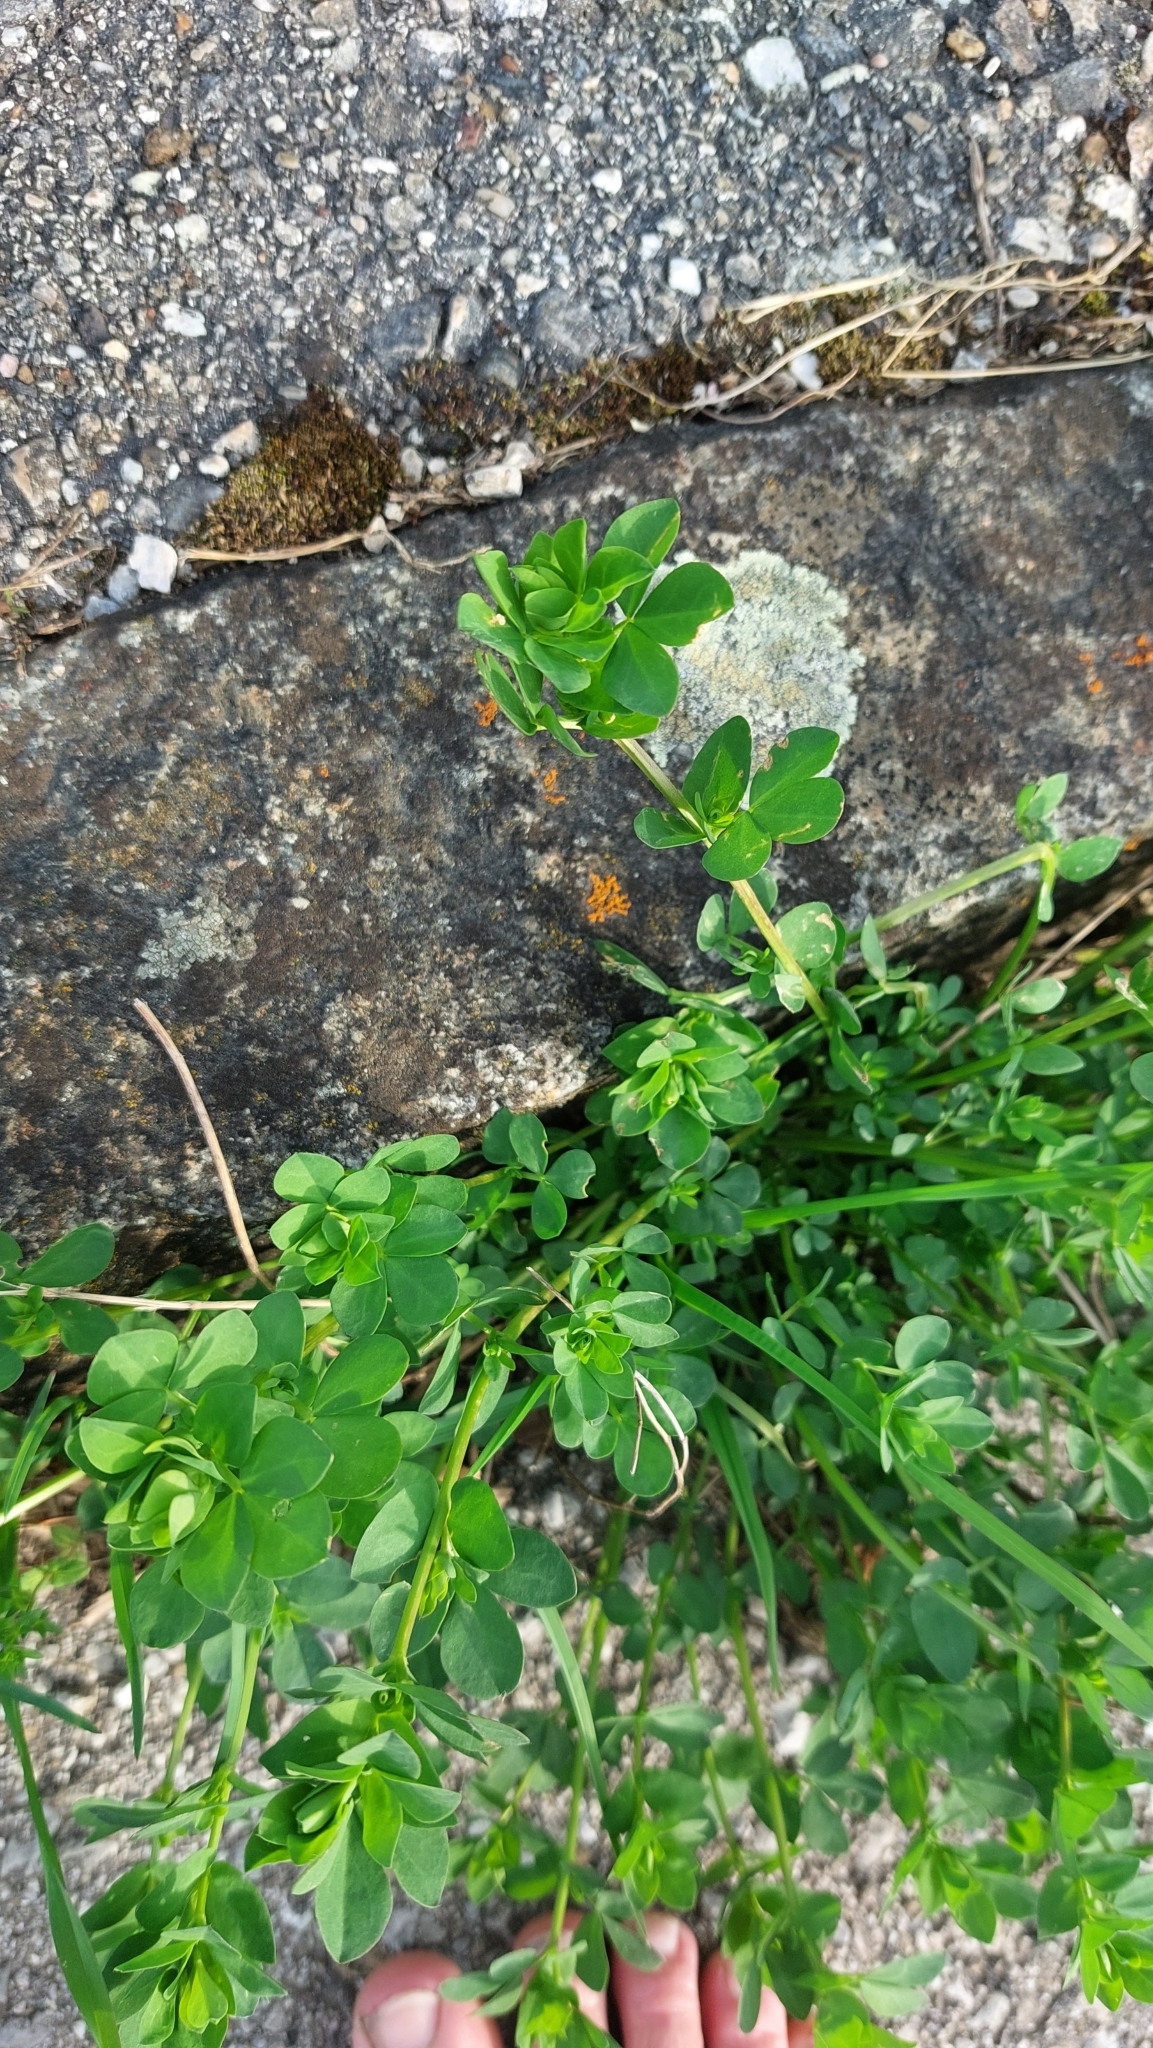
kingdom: Plantae
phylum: Tracheophyta
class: Magnoliopsida
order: Fabales
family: Fabaceae
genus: Lotus
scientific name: Lotus corniculatus
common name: Common bird's-foot-trefoil
